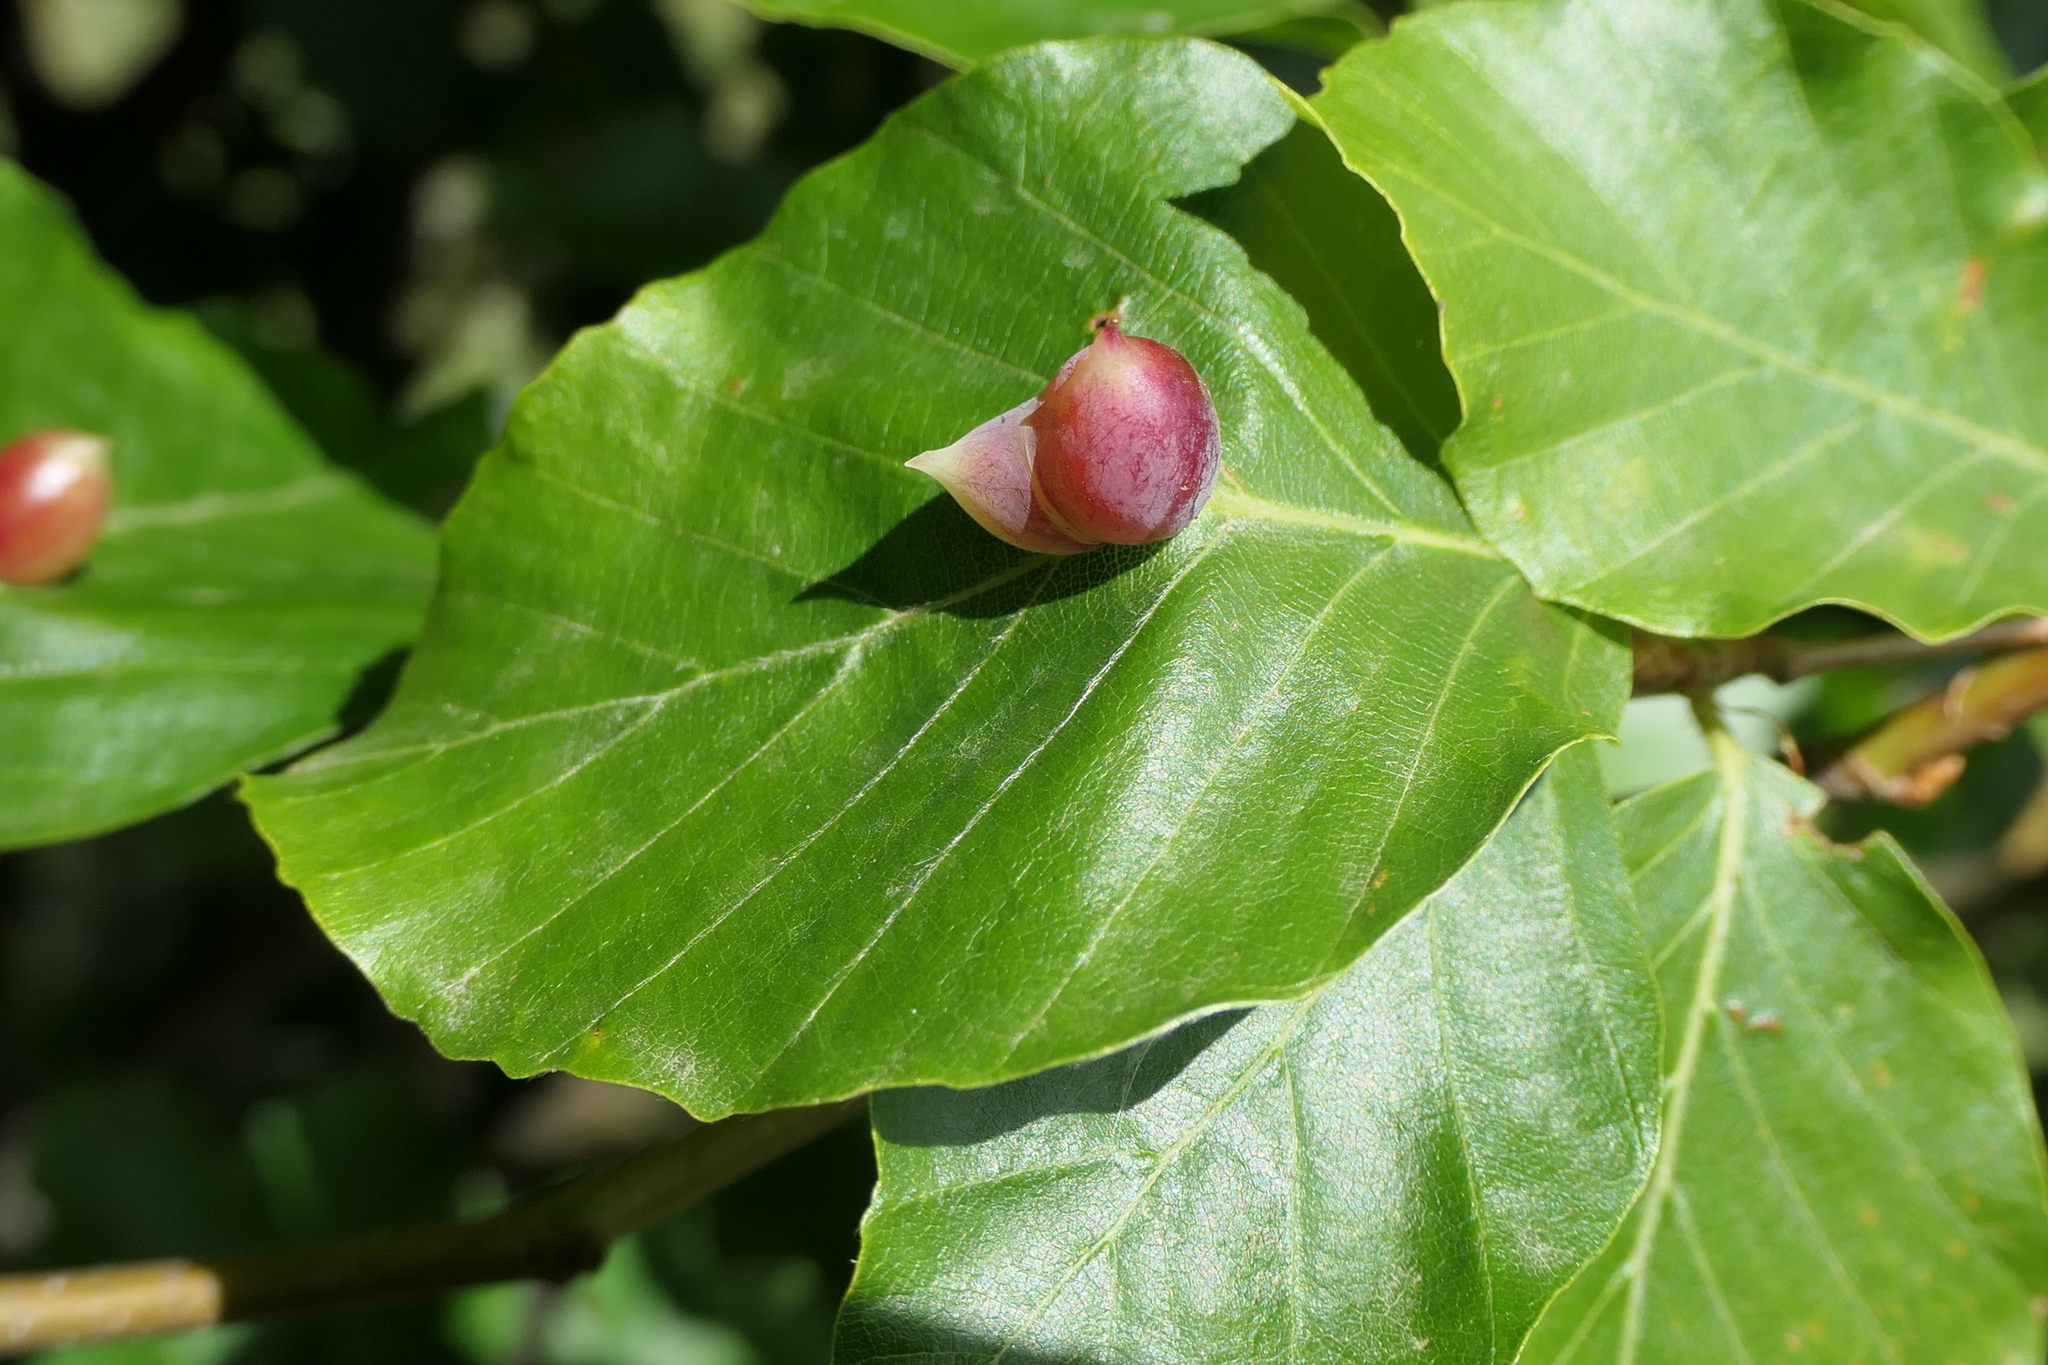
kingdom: Animalia
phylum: Arthropoda
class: Insecta
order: Diptera
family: Cecidomyiidae
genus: Mikiola
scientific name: Mikiola fagi
